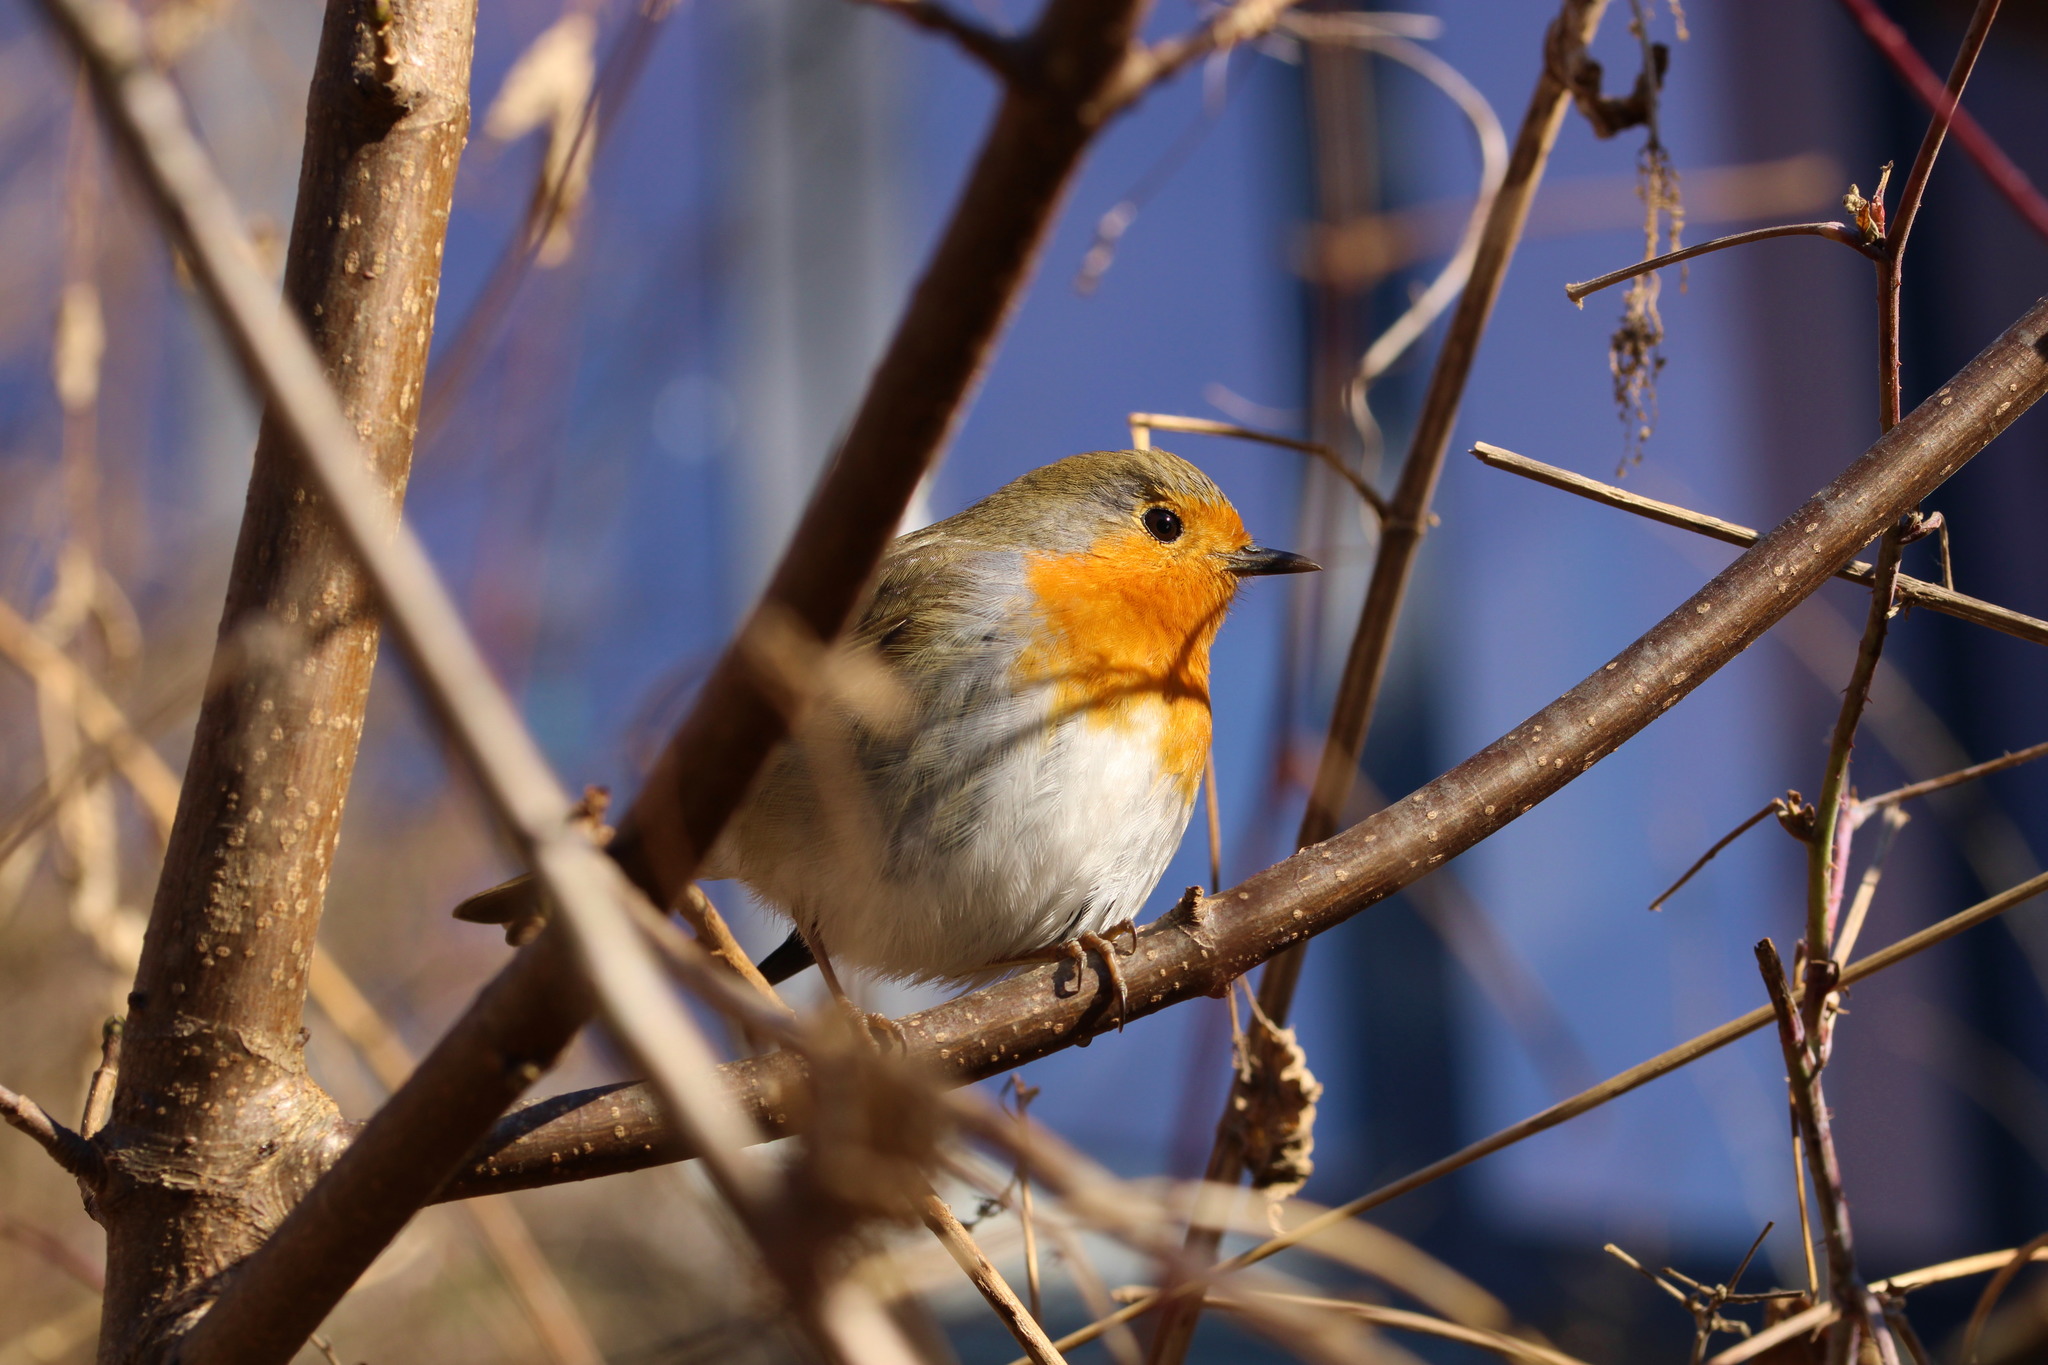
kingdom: Animalia
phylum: Chordata
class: Aves
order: Passeriformes
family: Muscicapidae
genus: Erithacus
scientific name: Erithacus rubecula
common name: European robin
